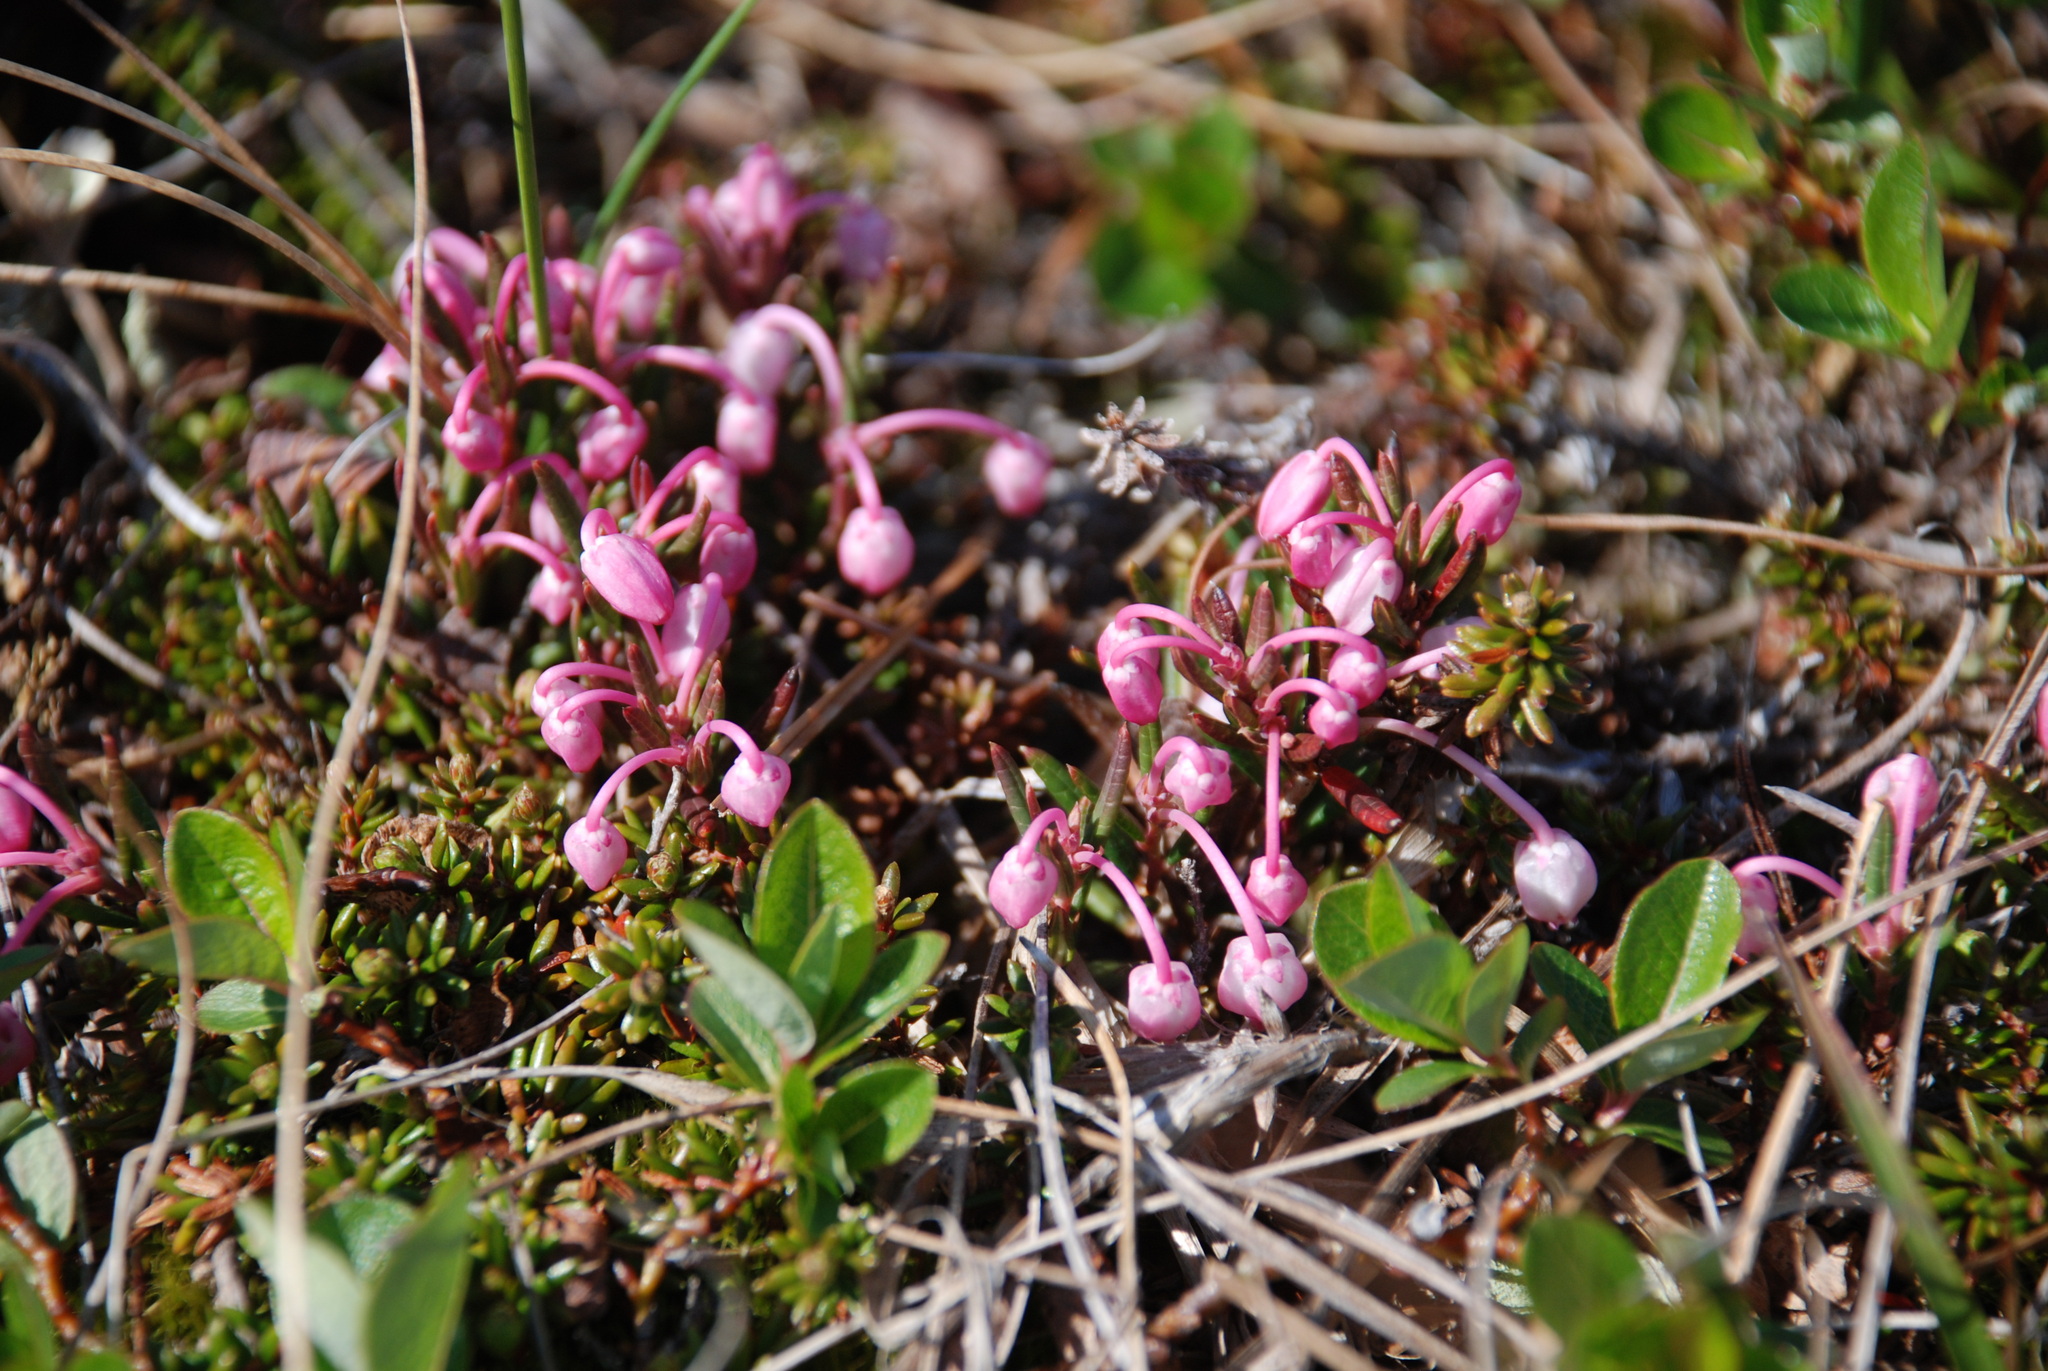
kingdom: Plantae
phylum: Tracheophyta
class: Magnoliopsida
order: Ericales
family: Ericaceae
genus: Andromeda
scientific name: Andromeda polifolia
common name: Bog-rosemary
